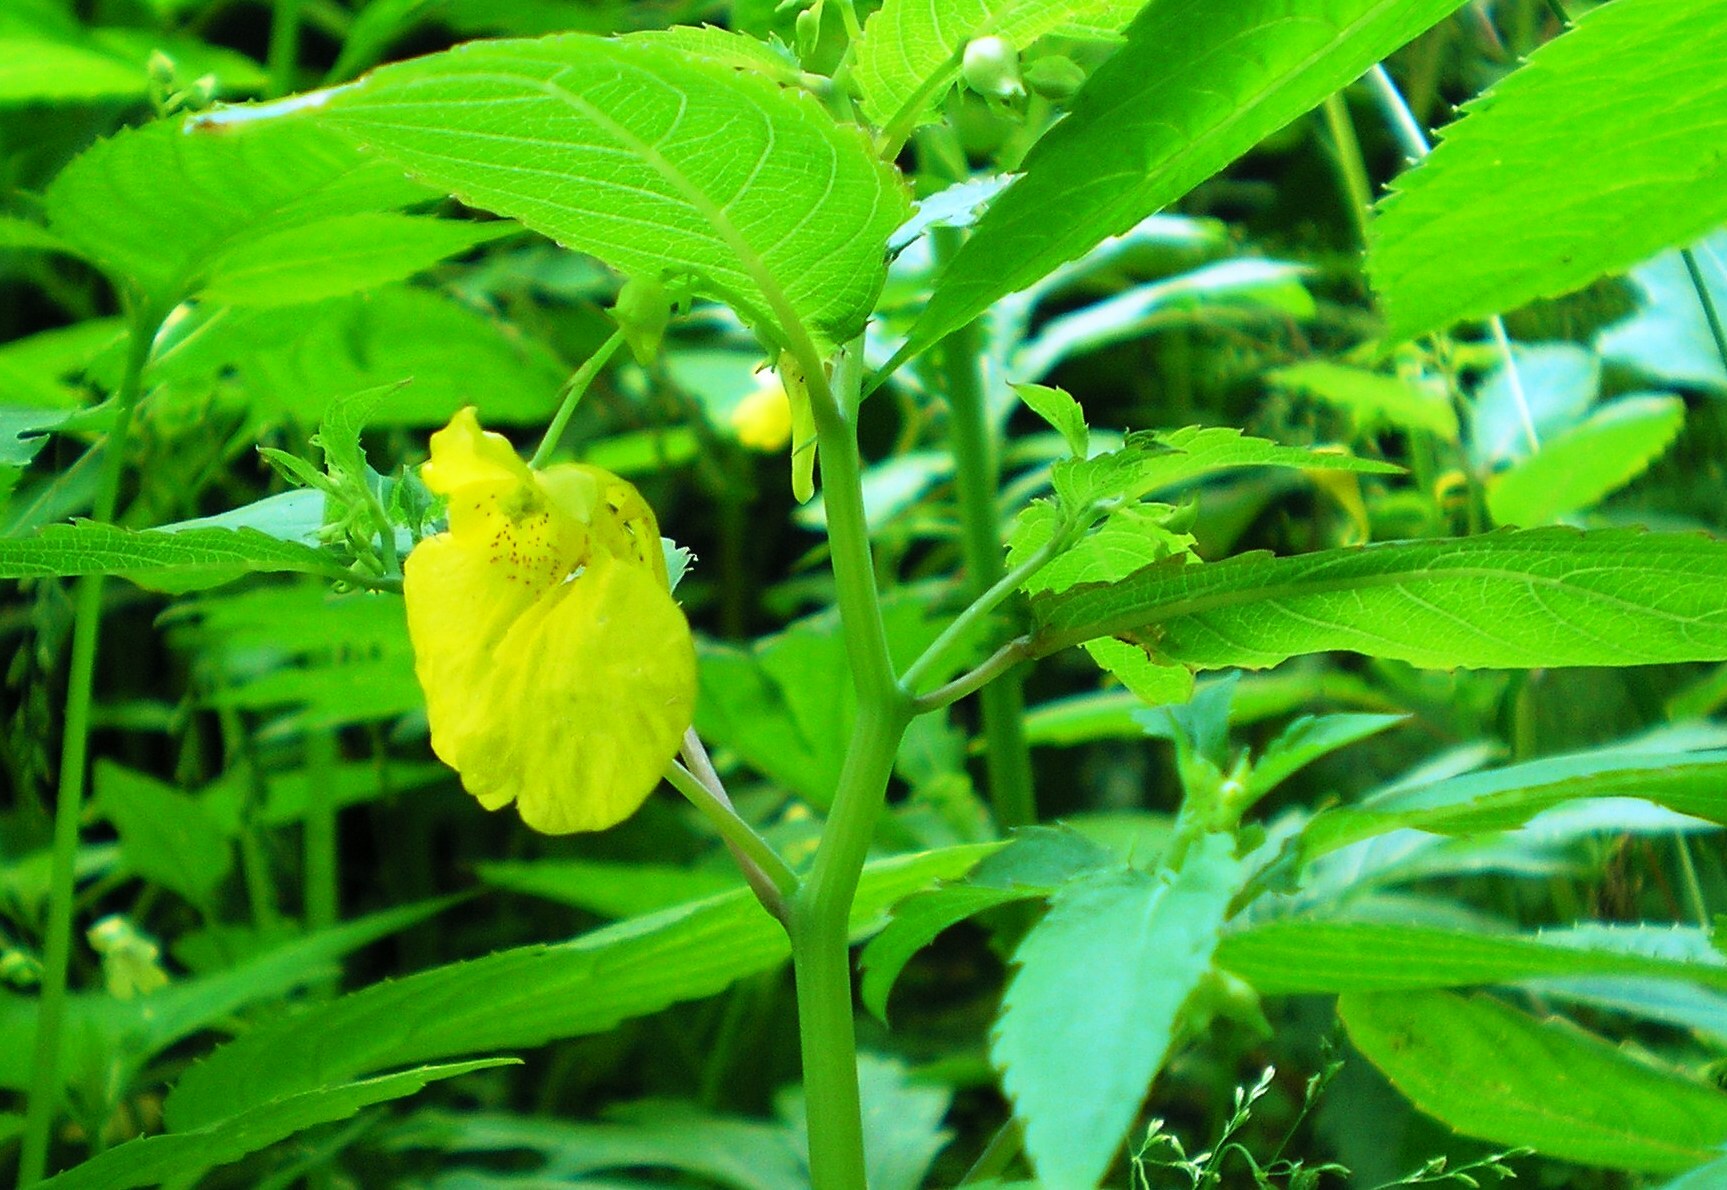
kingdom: Plantae
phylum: Tracheophyta
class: Magnoliopsida
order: Ericales
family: Balsaminaceae
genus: Impatiens
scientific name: Impatiens noli-tangere
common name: Touch-me-not balsam
